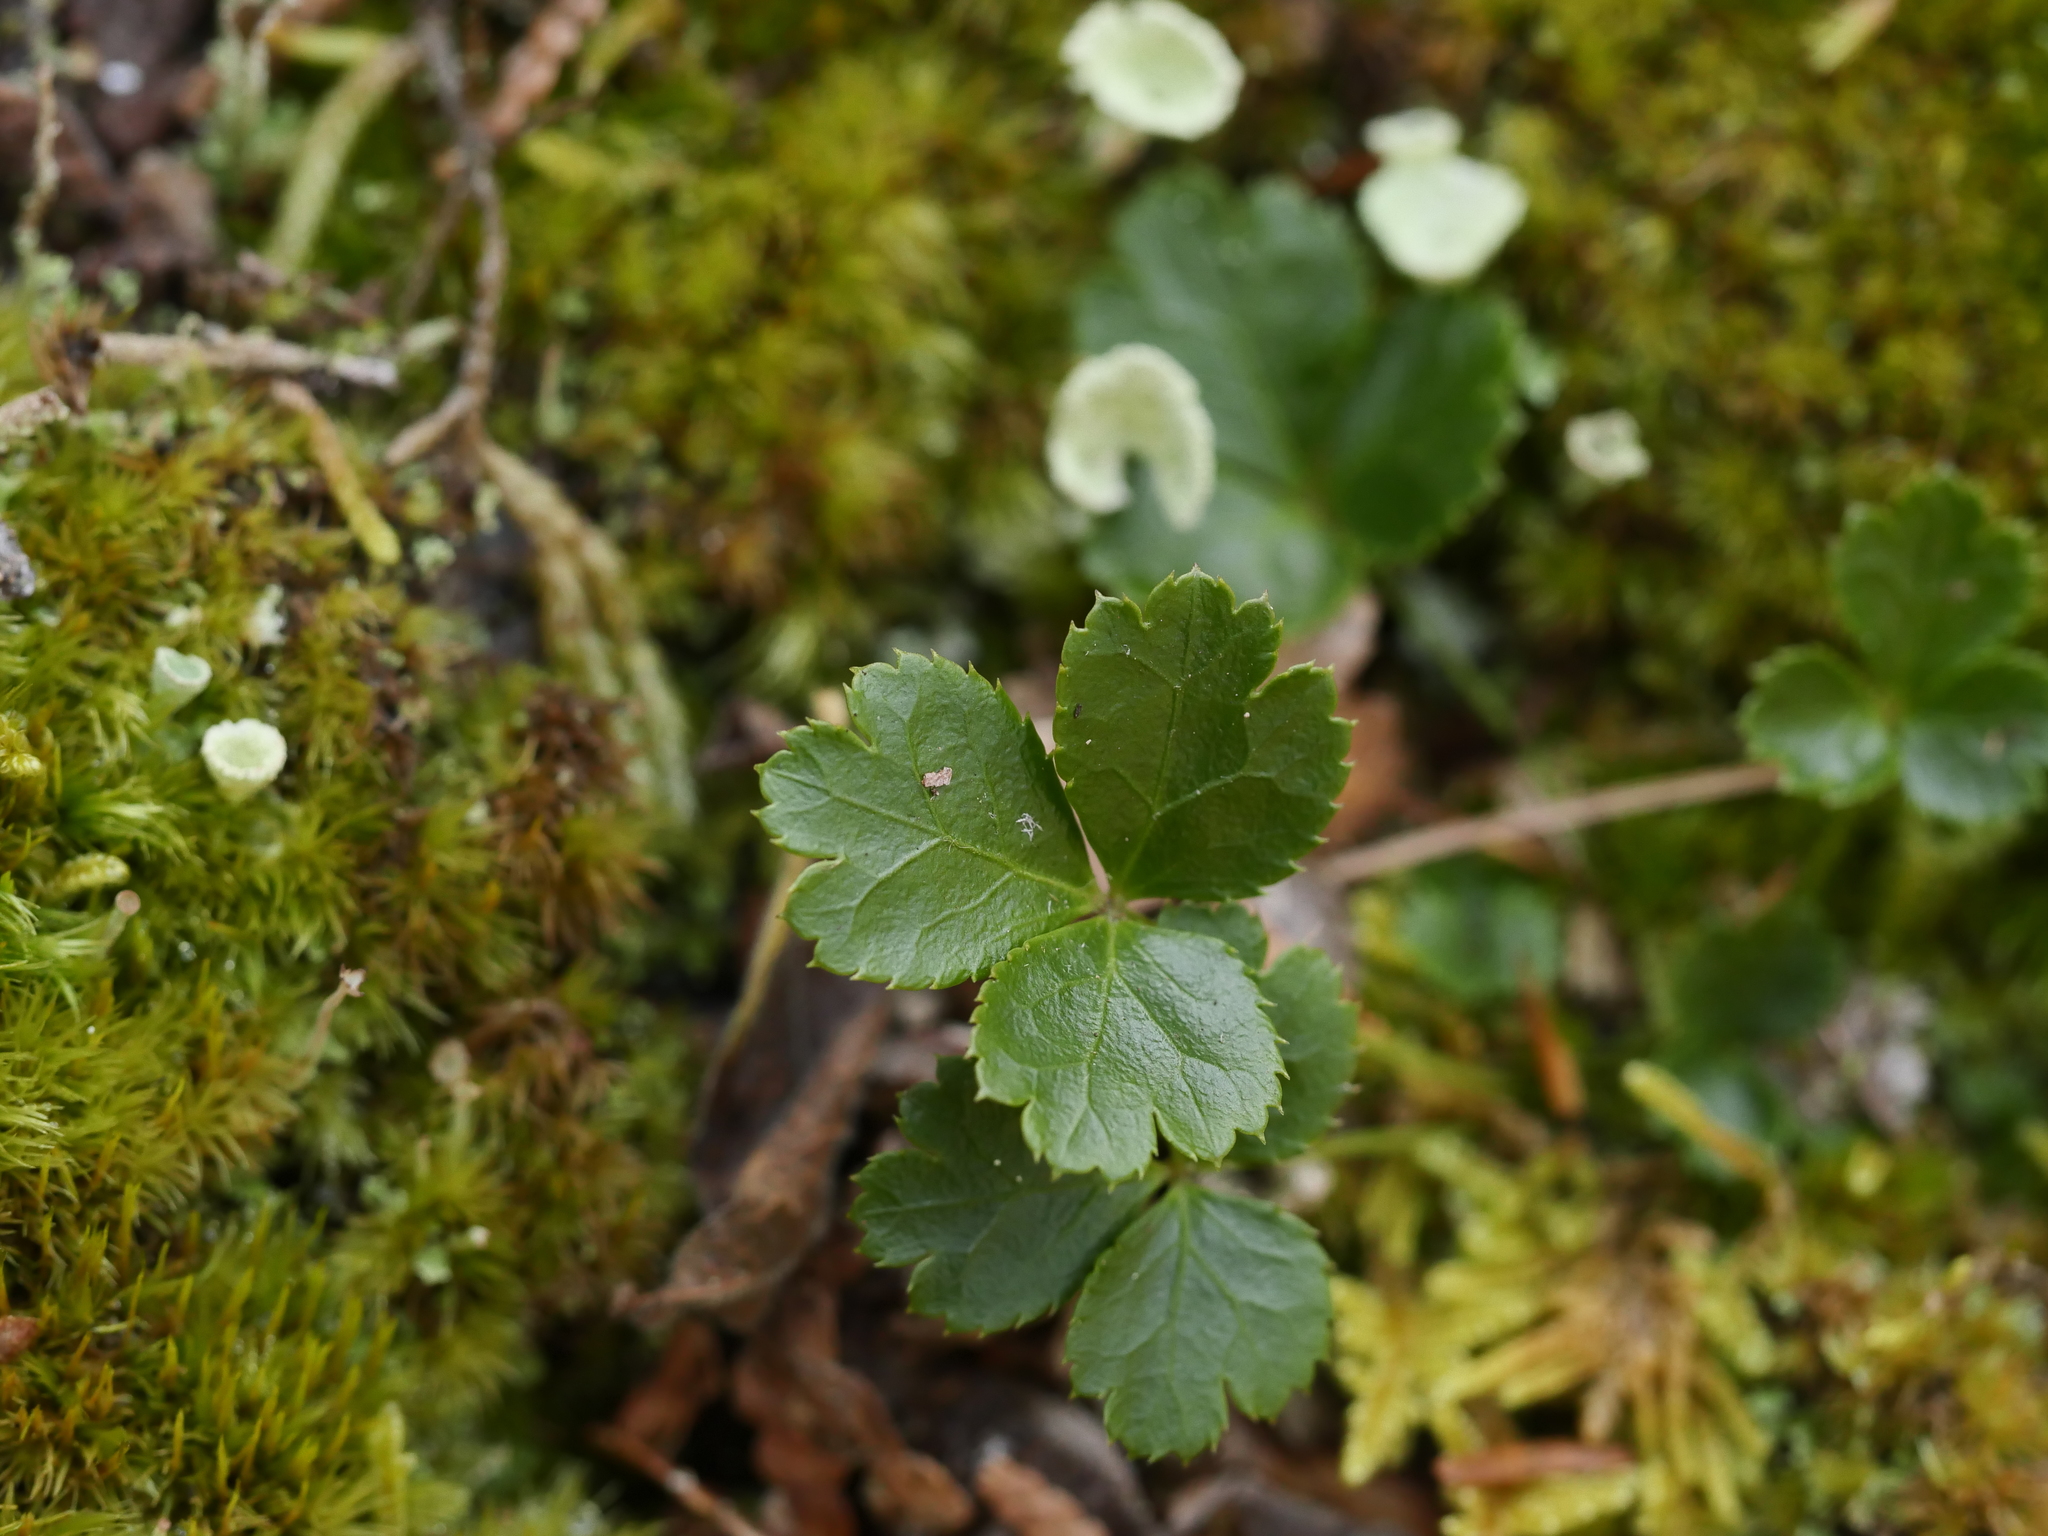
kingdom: Plantae
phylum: Tracheophyta
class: Magnoliopsida
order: Ranunculales
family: Ranunculaceae
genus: Coptis
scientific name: Coptis trifolia
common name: Canker-root
